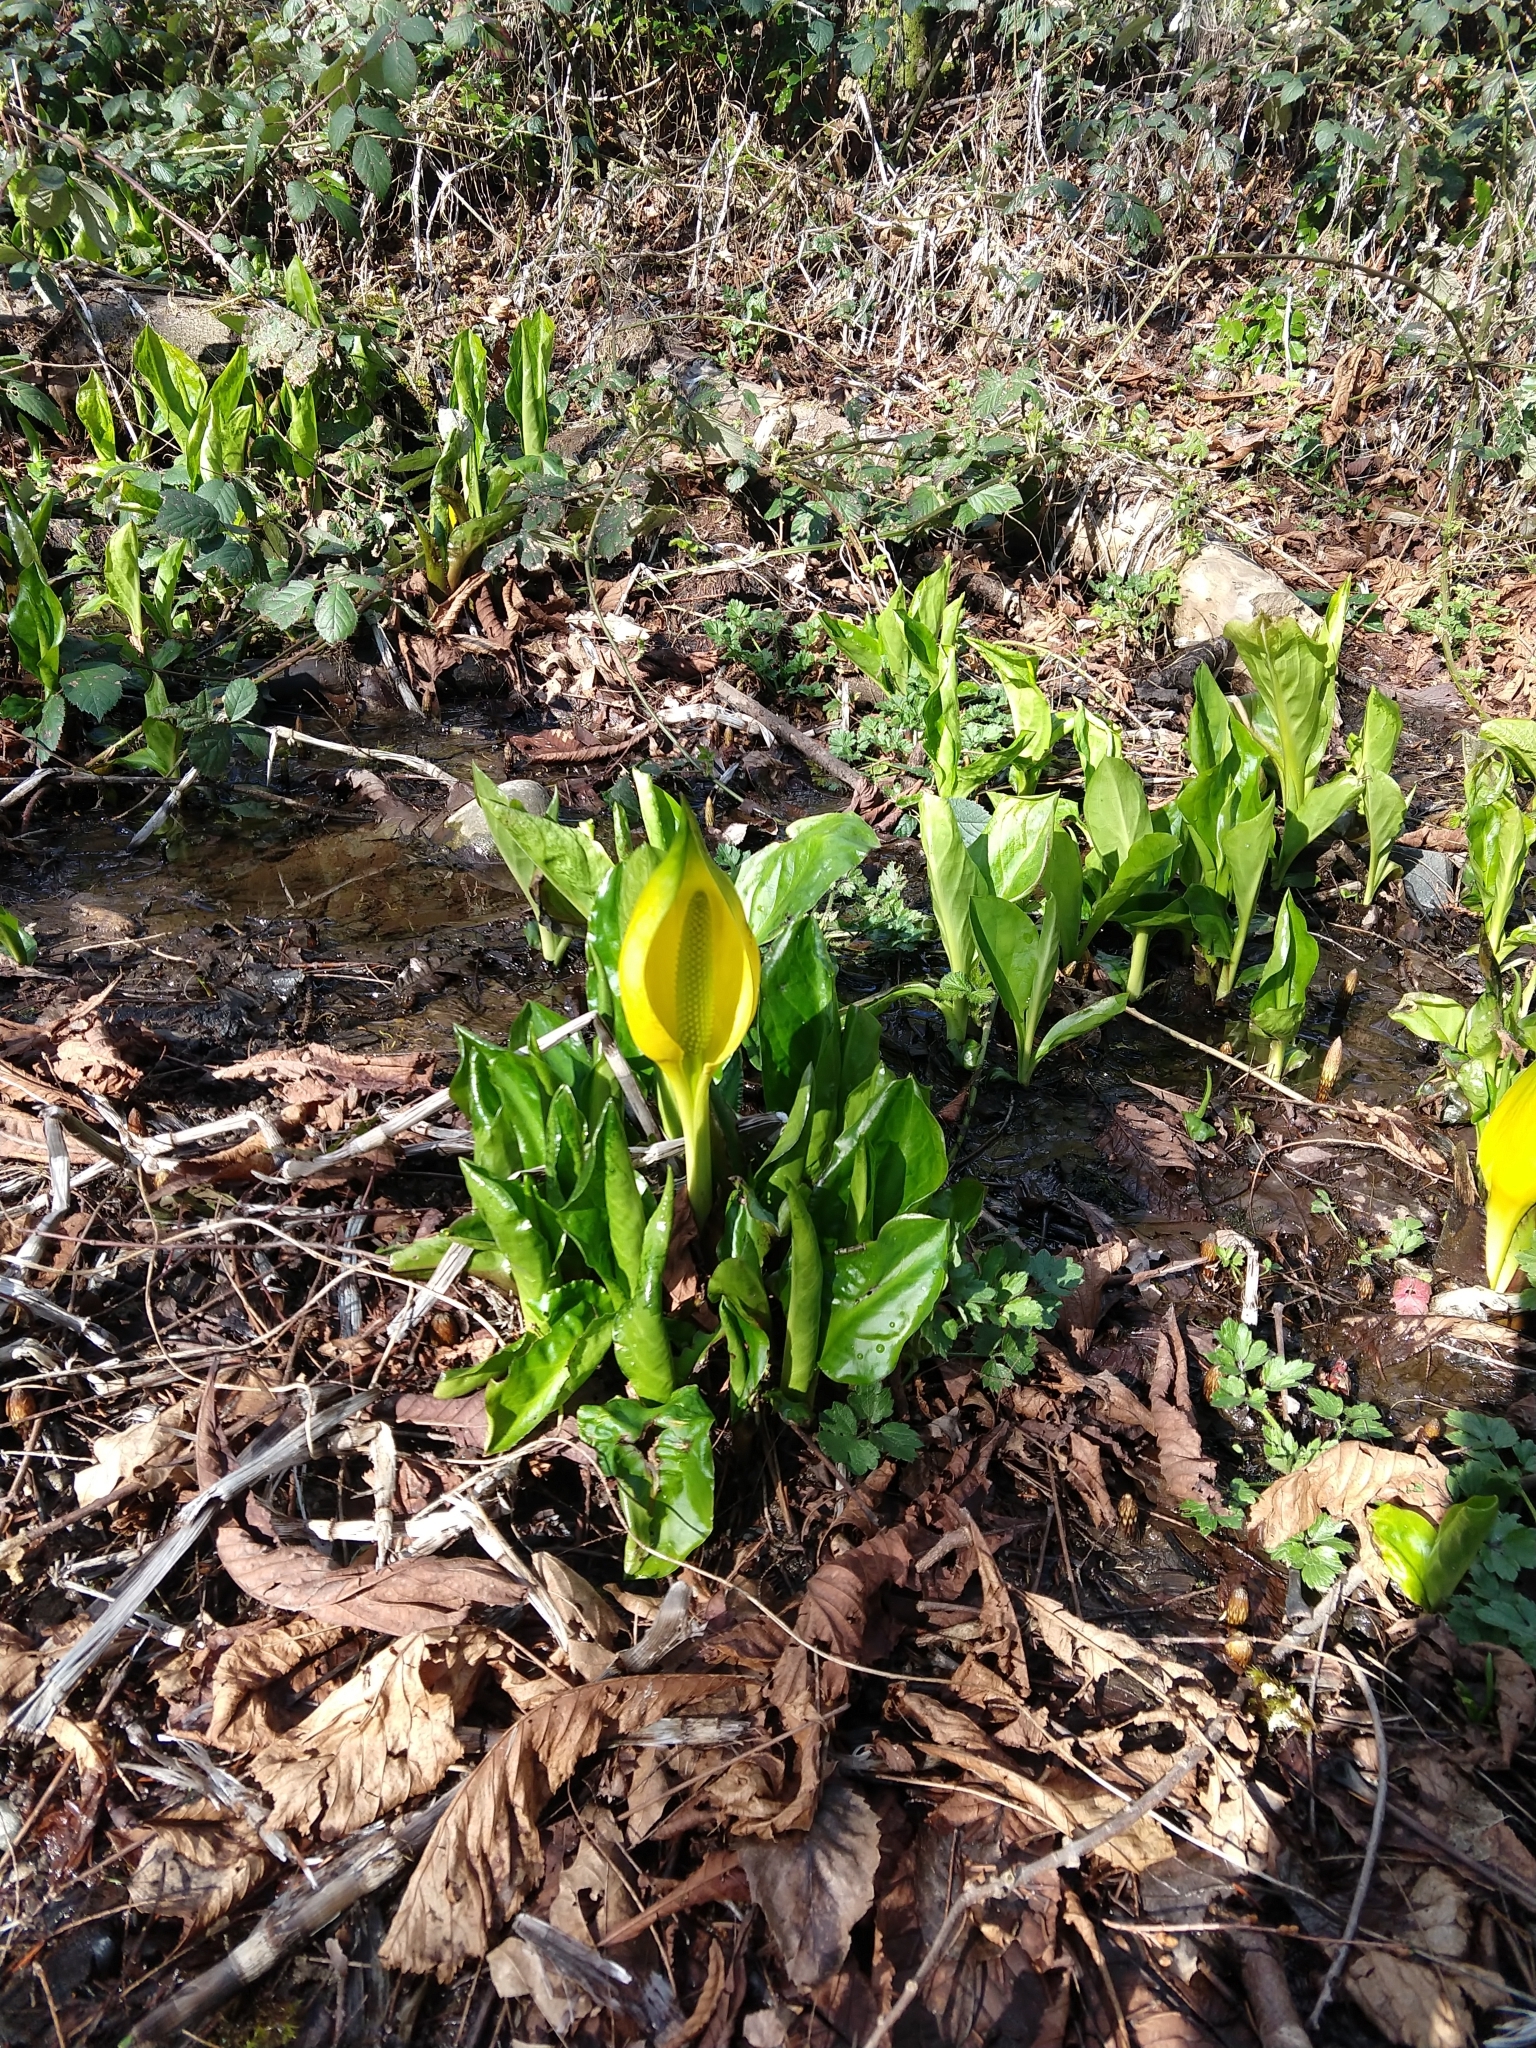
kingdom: Plantae
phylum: Tracheophyta
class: Liliopsida
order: Alismatales
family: Araceae
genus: Lysichiton
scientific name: Lysichiton americanus
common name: American skunk cabbage
